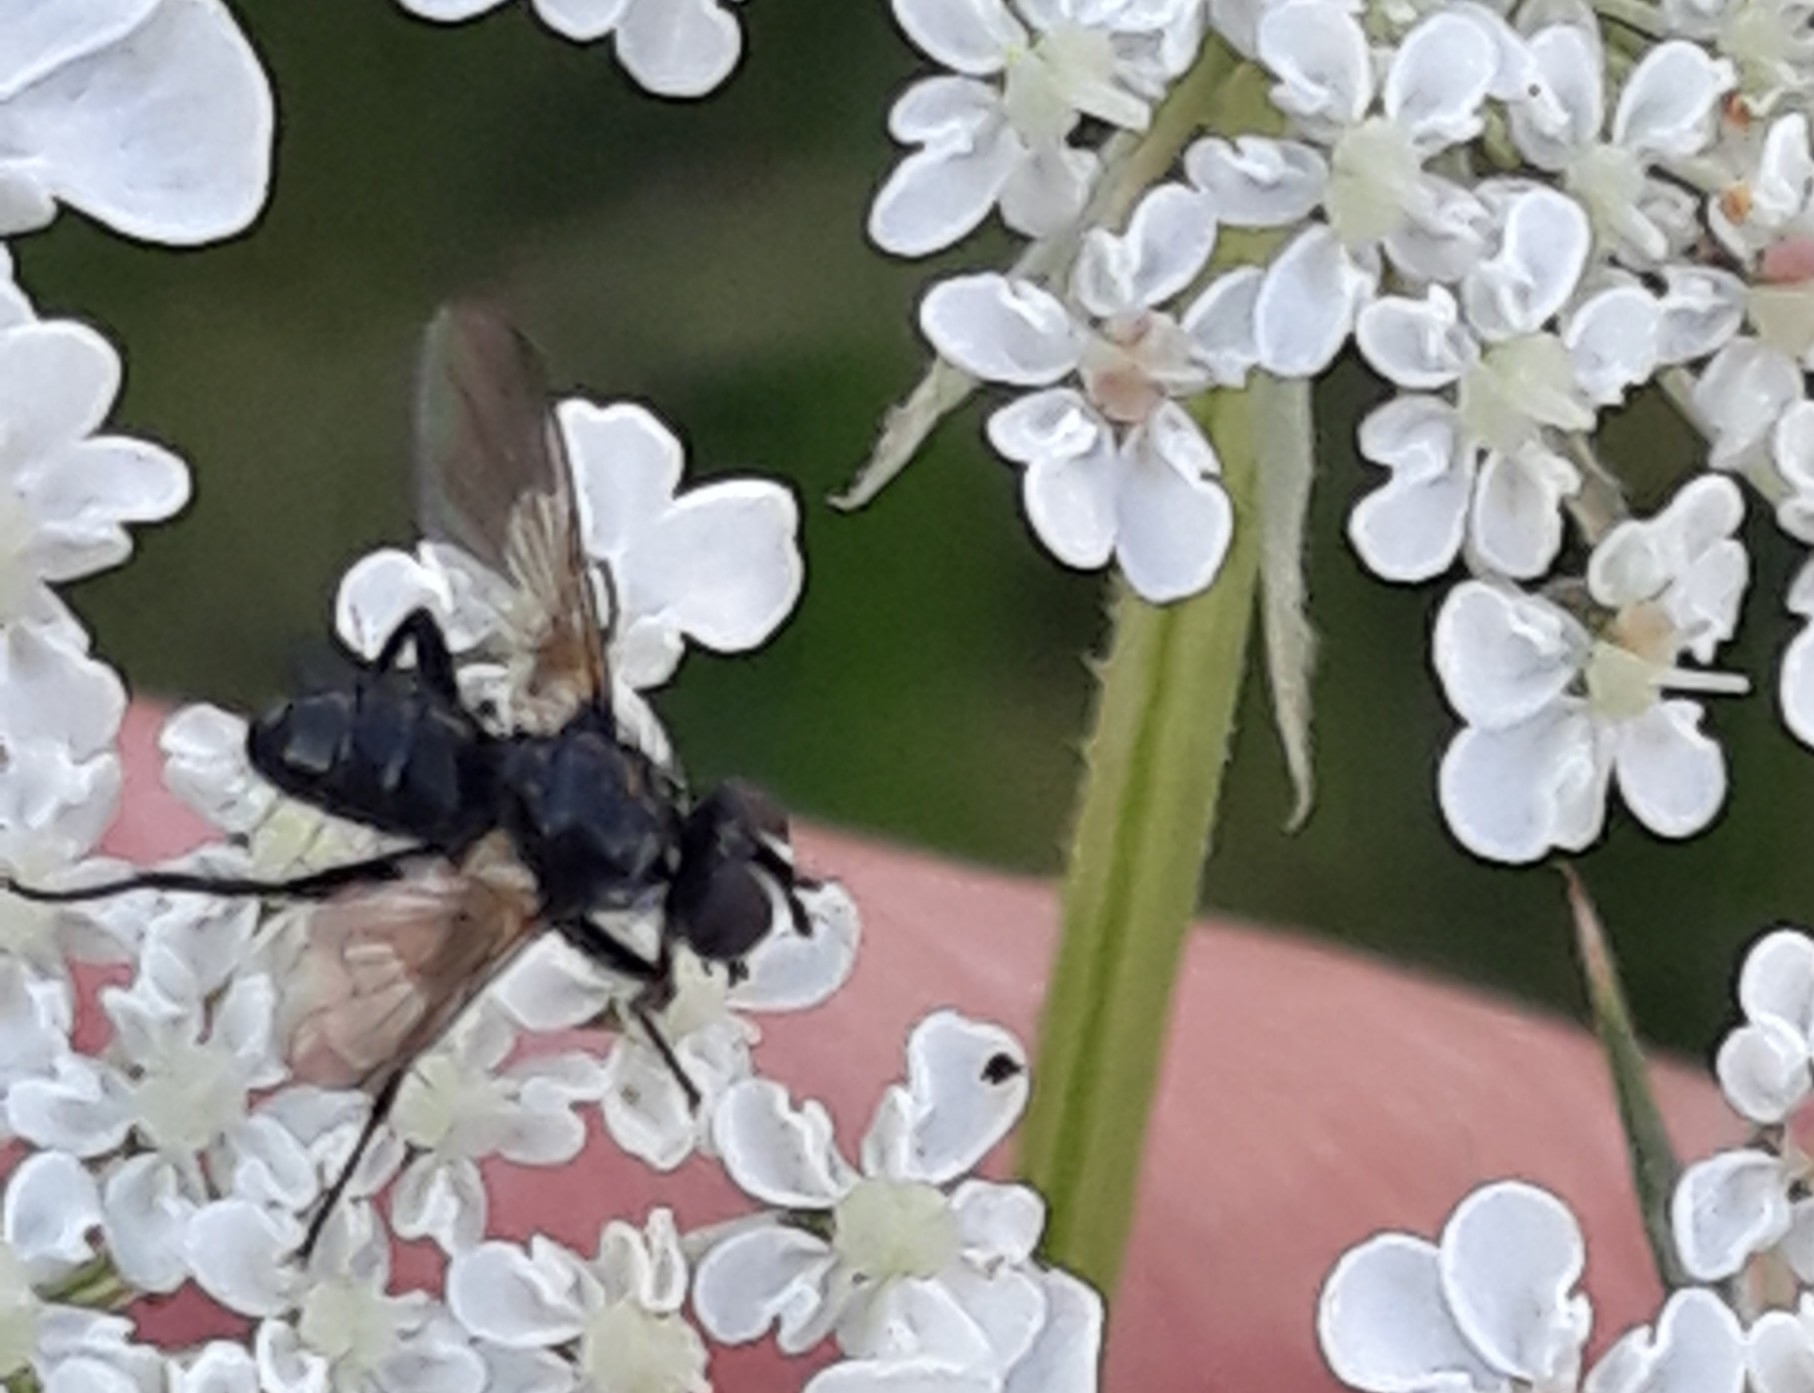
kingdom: Animalia
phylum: Arthropoda
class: Insecta
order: Diptera
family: Tachinidae
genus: Phania
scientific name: Phania funesta
